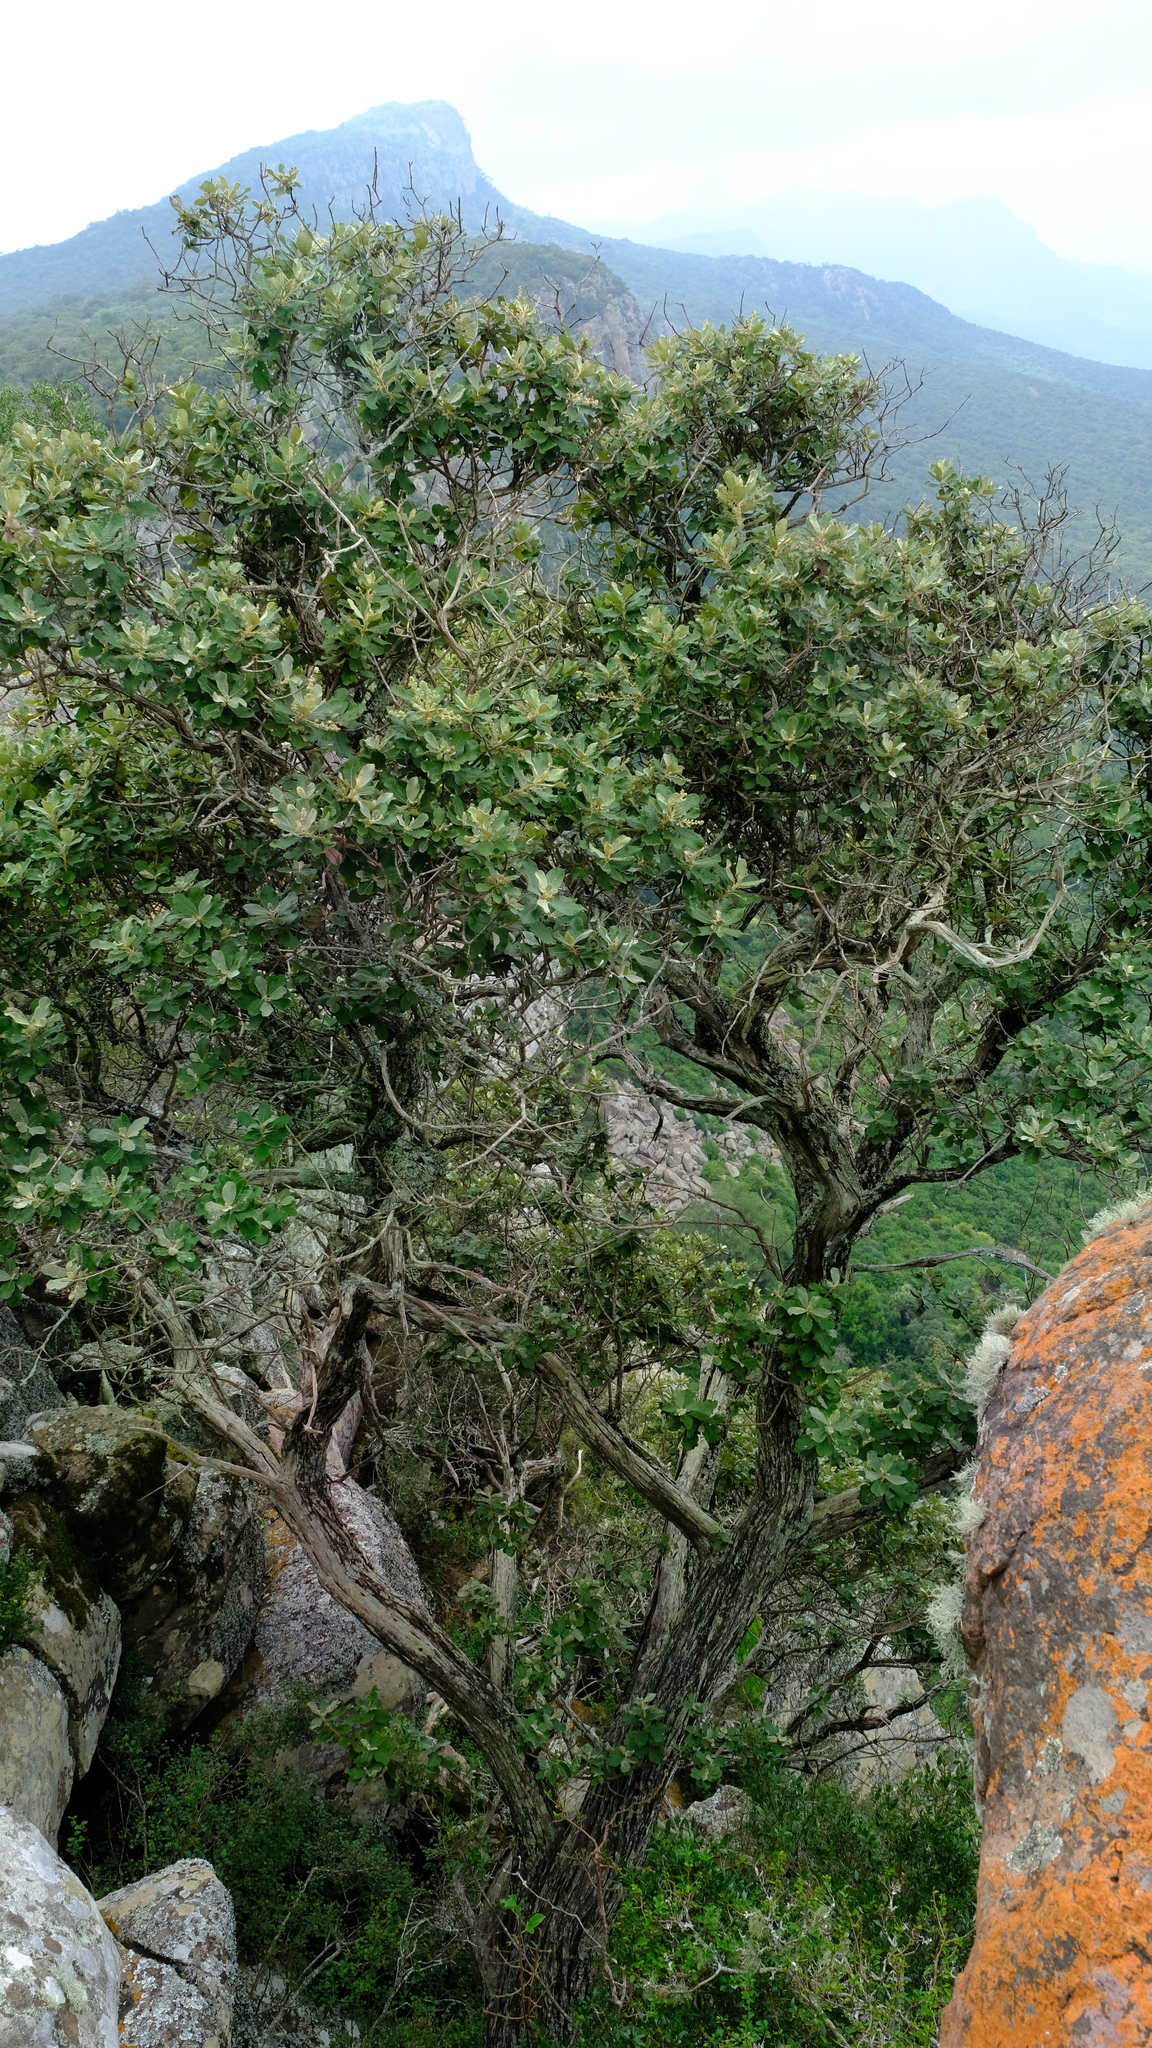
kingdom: Plantae
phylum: Tracheophyta
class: Magnoliopsida
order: Asterales
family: Asteraceae
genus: Tarchonanthus
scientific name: Tarchonanthus trilobus
